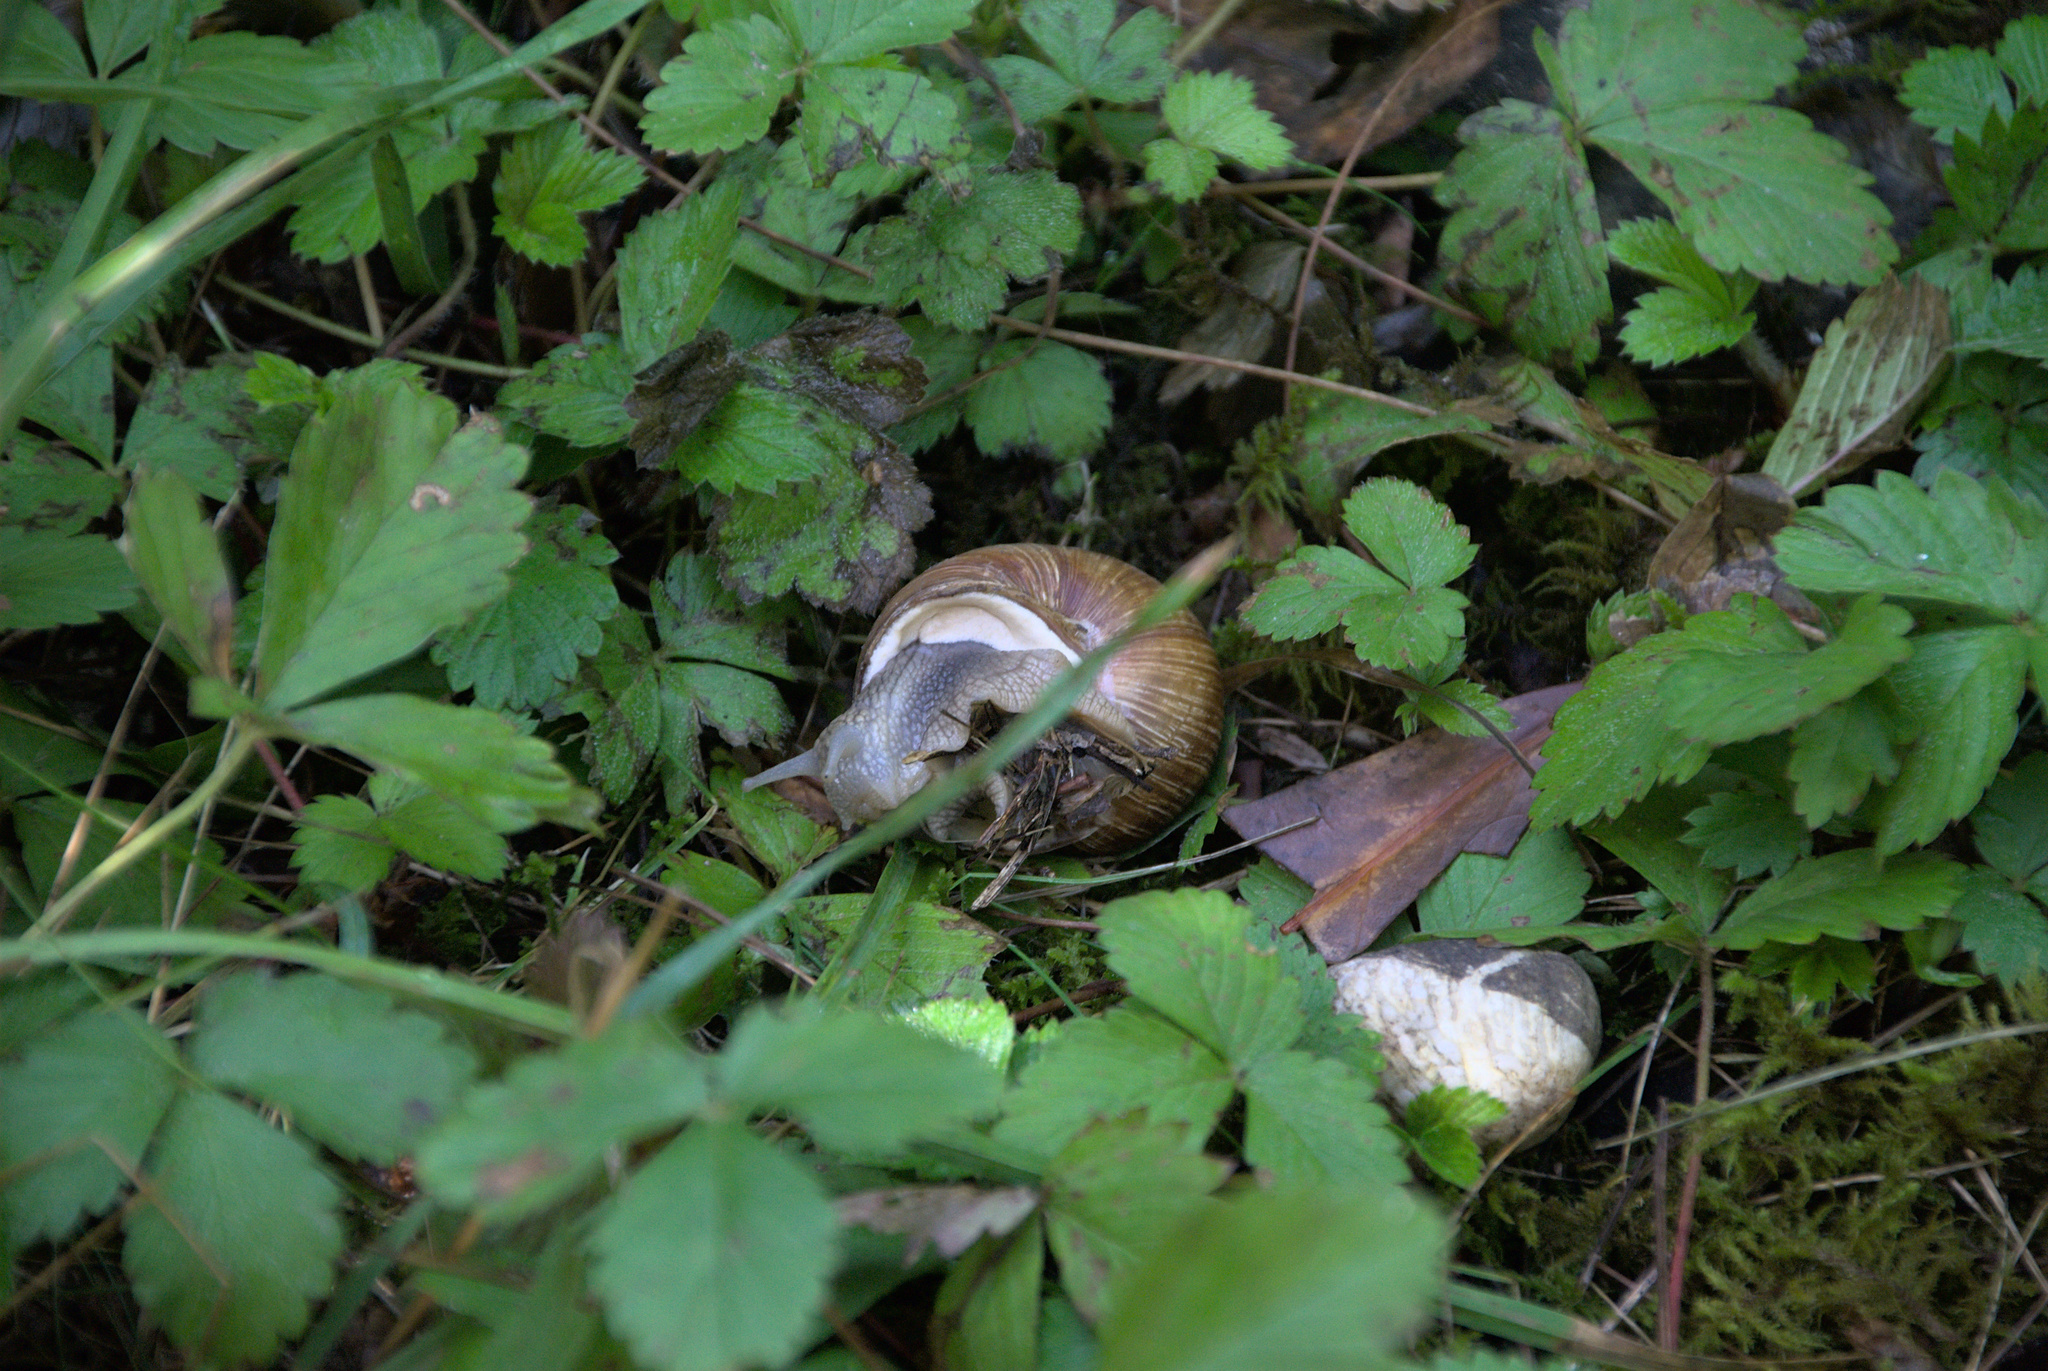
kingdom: Animalia
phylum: Mollusca
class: Gastropoda
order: Stylommatophora
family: Helicidae
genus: Helix
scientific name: Helix pomatia
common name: Roman snail
